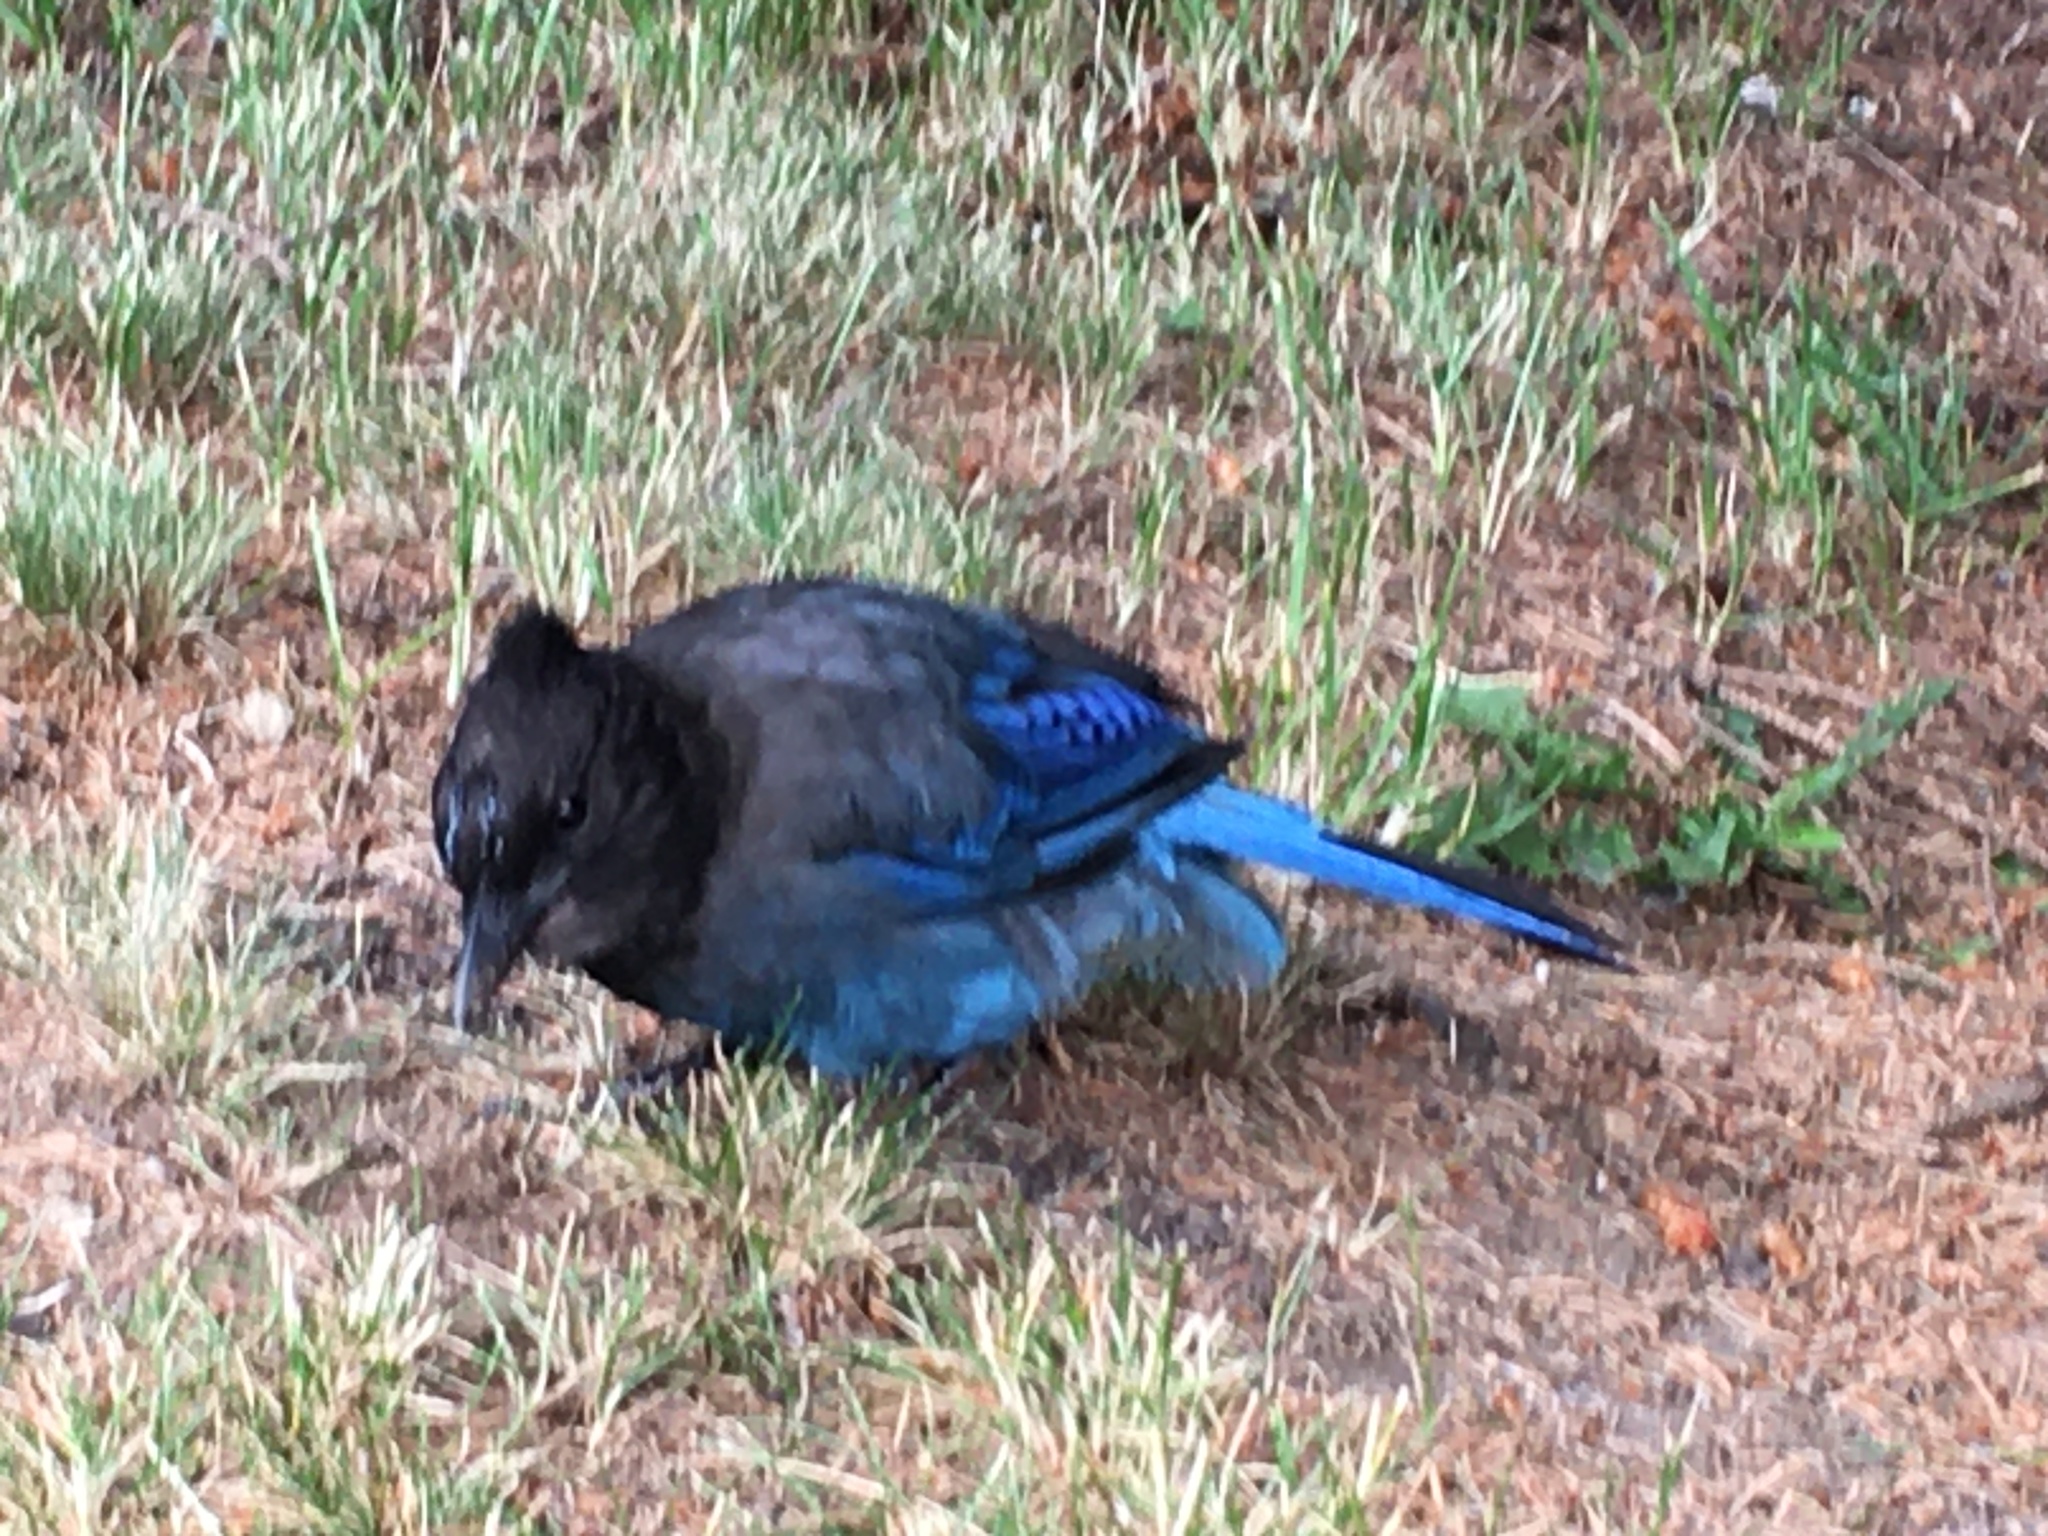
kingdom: Animalia
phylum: Chordata
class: Aves
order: Passeriformes
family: Corvidae
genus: Cyanocitta
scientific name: Cyanocitta stelleri
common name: Steller's jay
